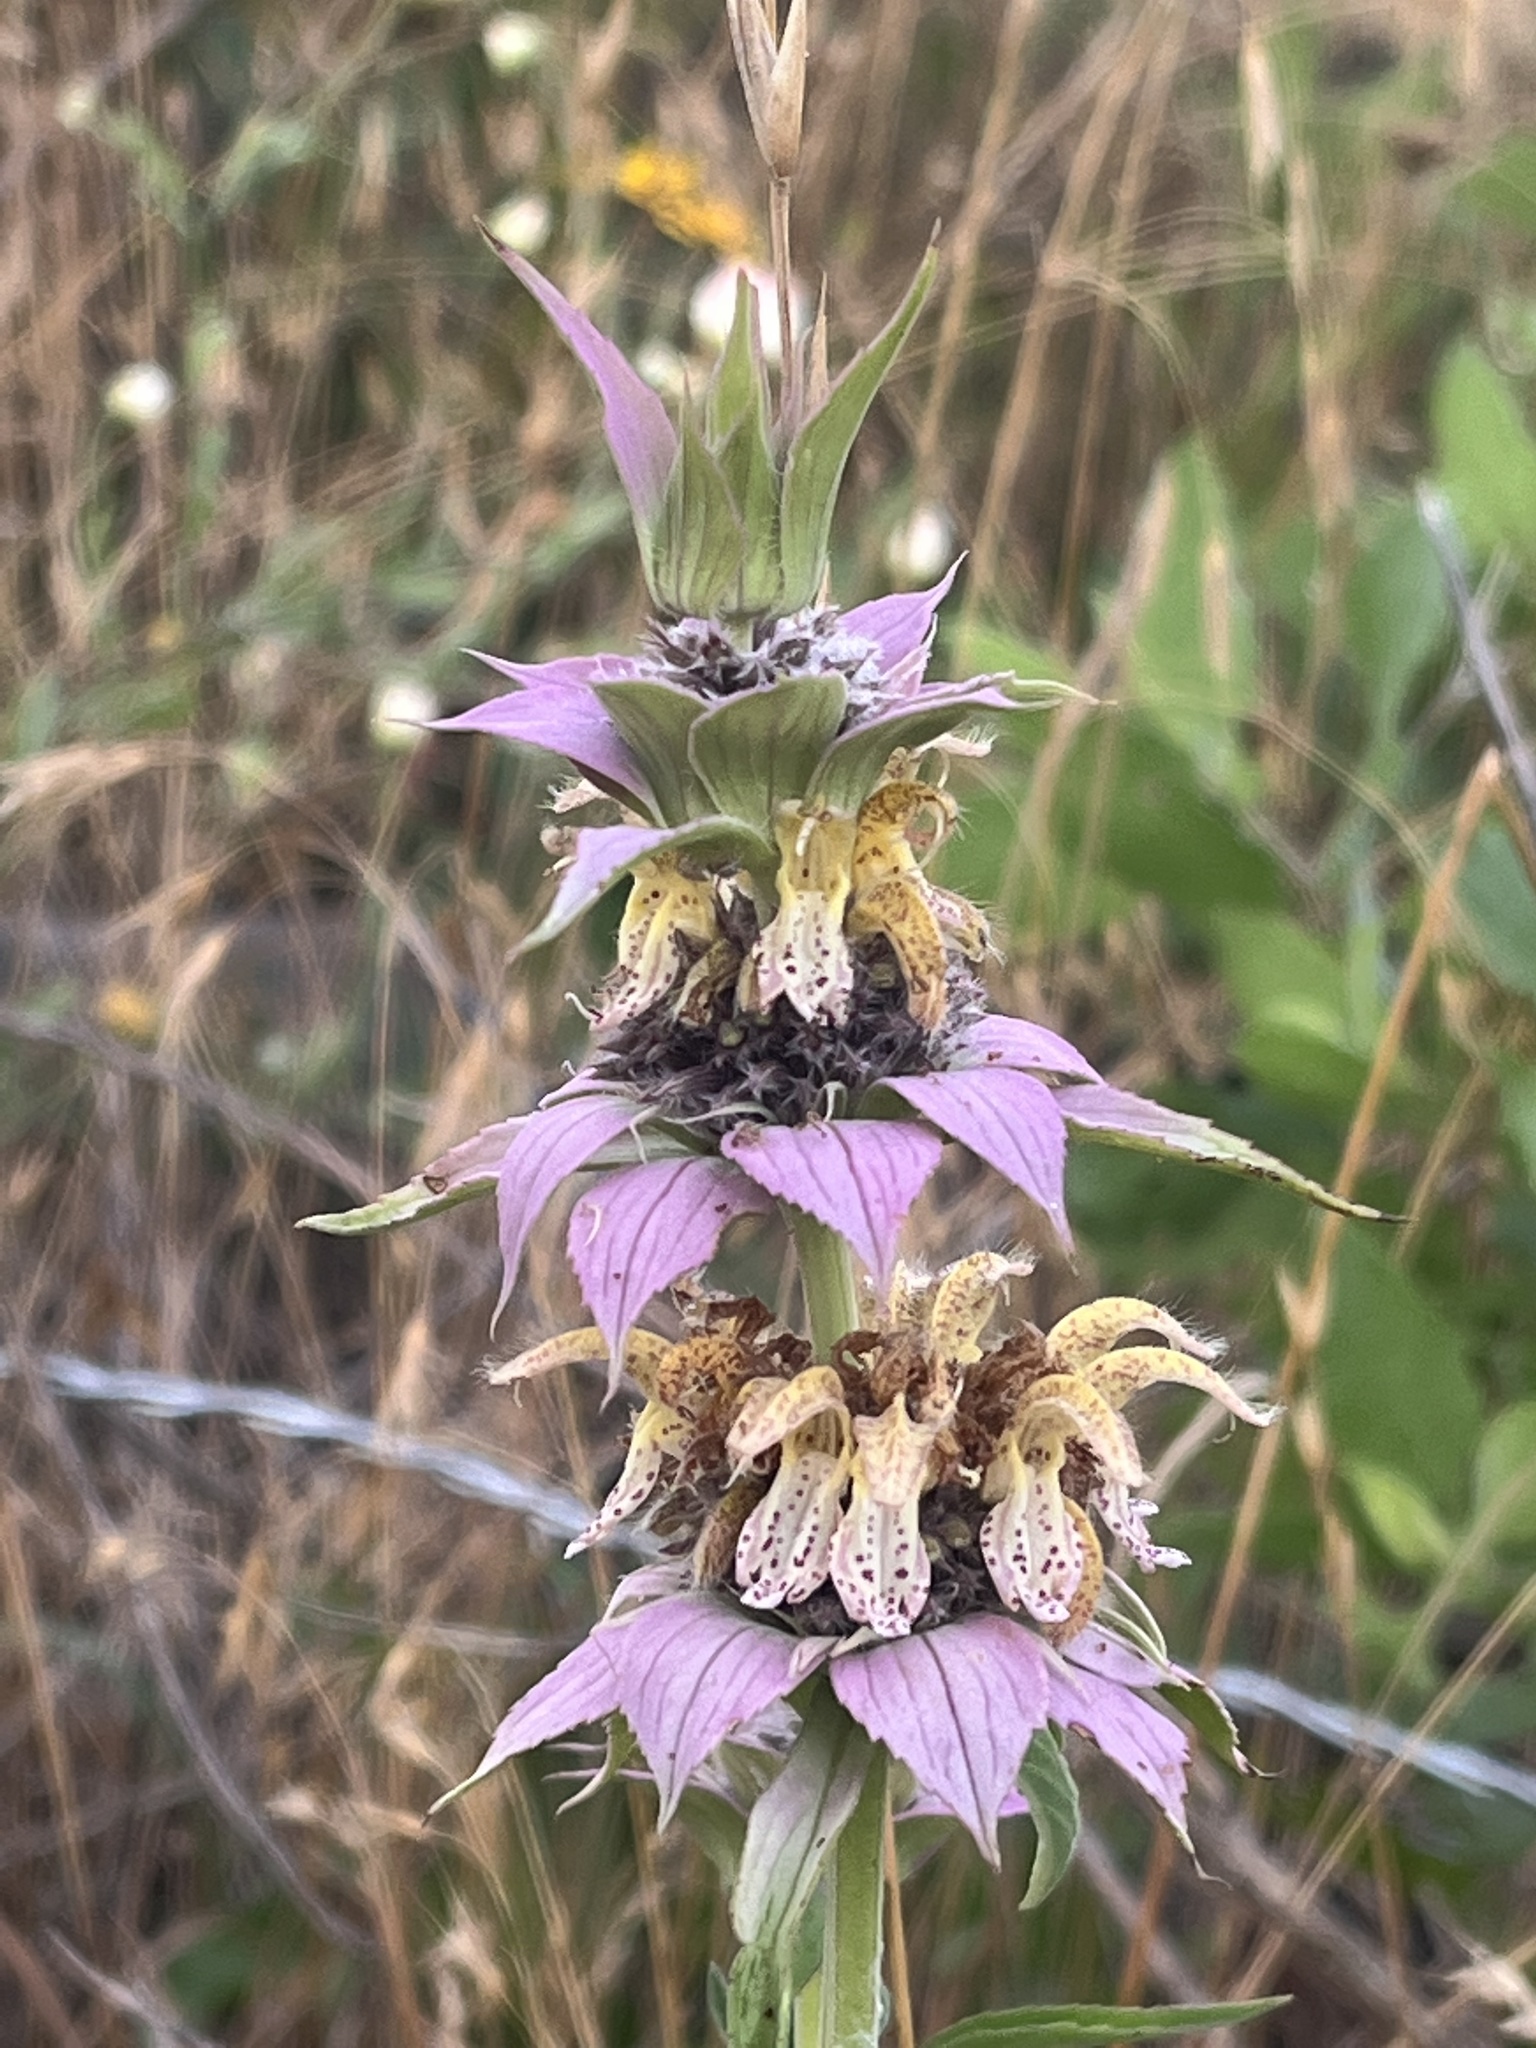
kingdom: Plantae
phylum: Tracheophyta
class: Magnoliopsida
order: Lamiales
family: Lamiaceae
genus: Monarda
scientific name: Monarda punctata
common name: Dotted monarda
